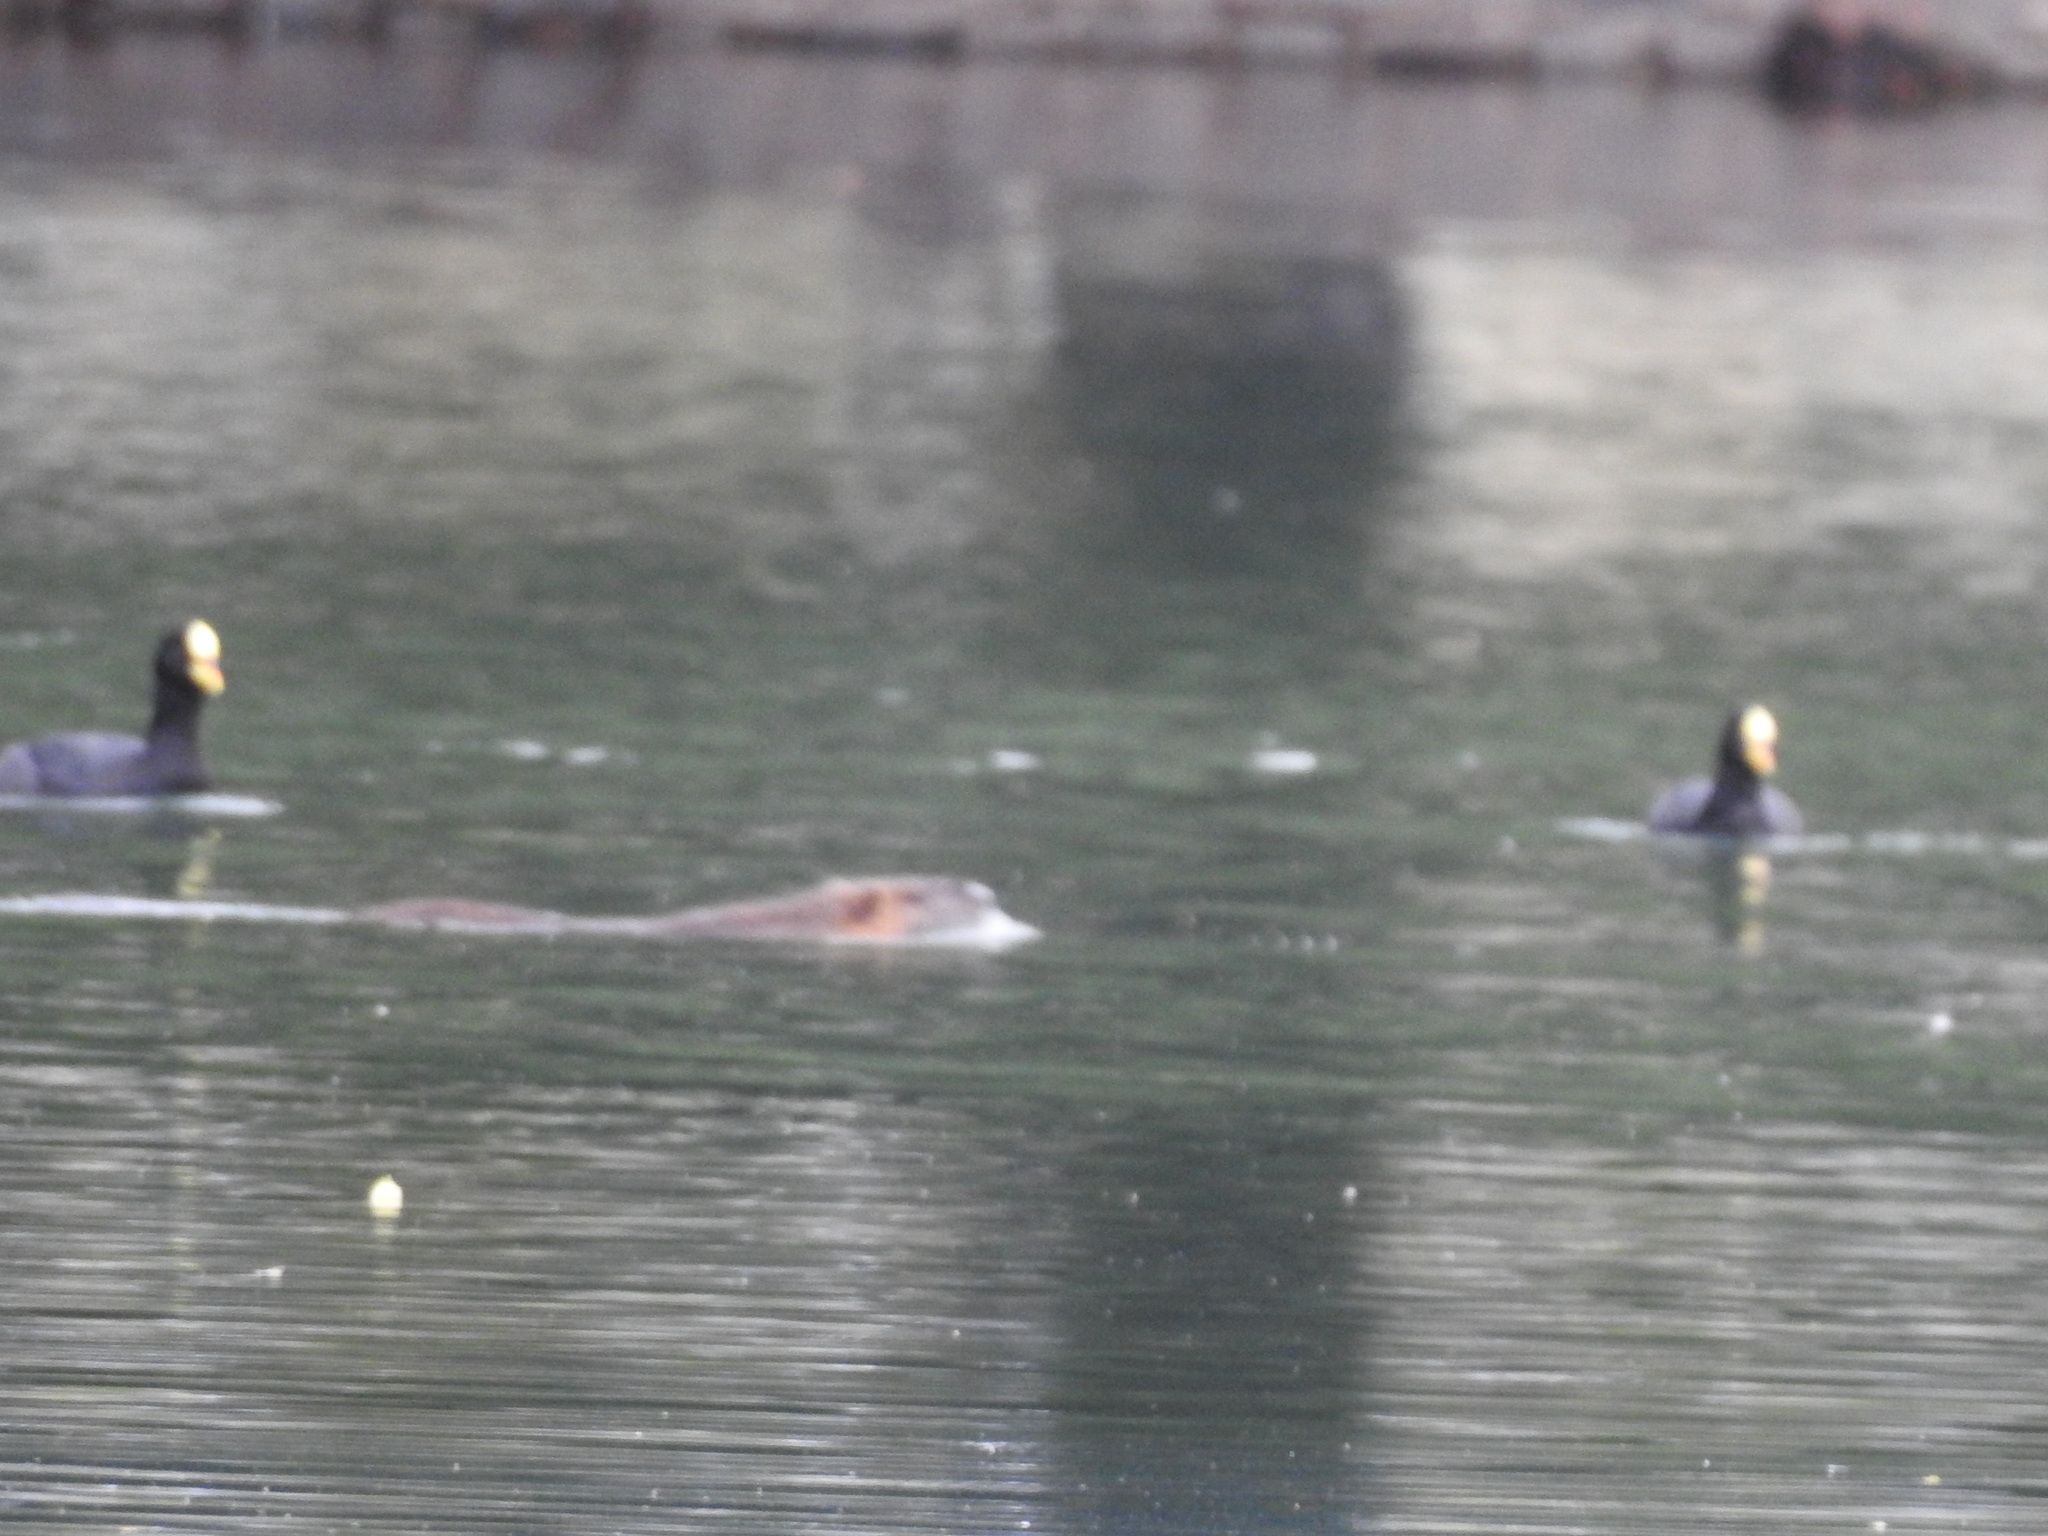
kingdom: Animalia
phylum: Chordata
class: Mammalia
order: Rodentia
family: Myocastoridae
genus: Myocastor
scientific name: Myocastor coypus
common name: Coypu
